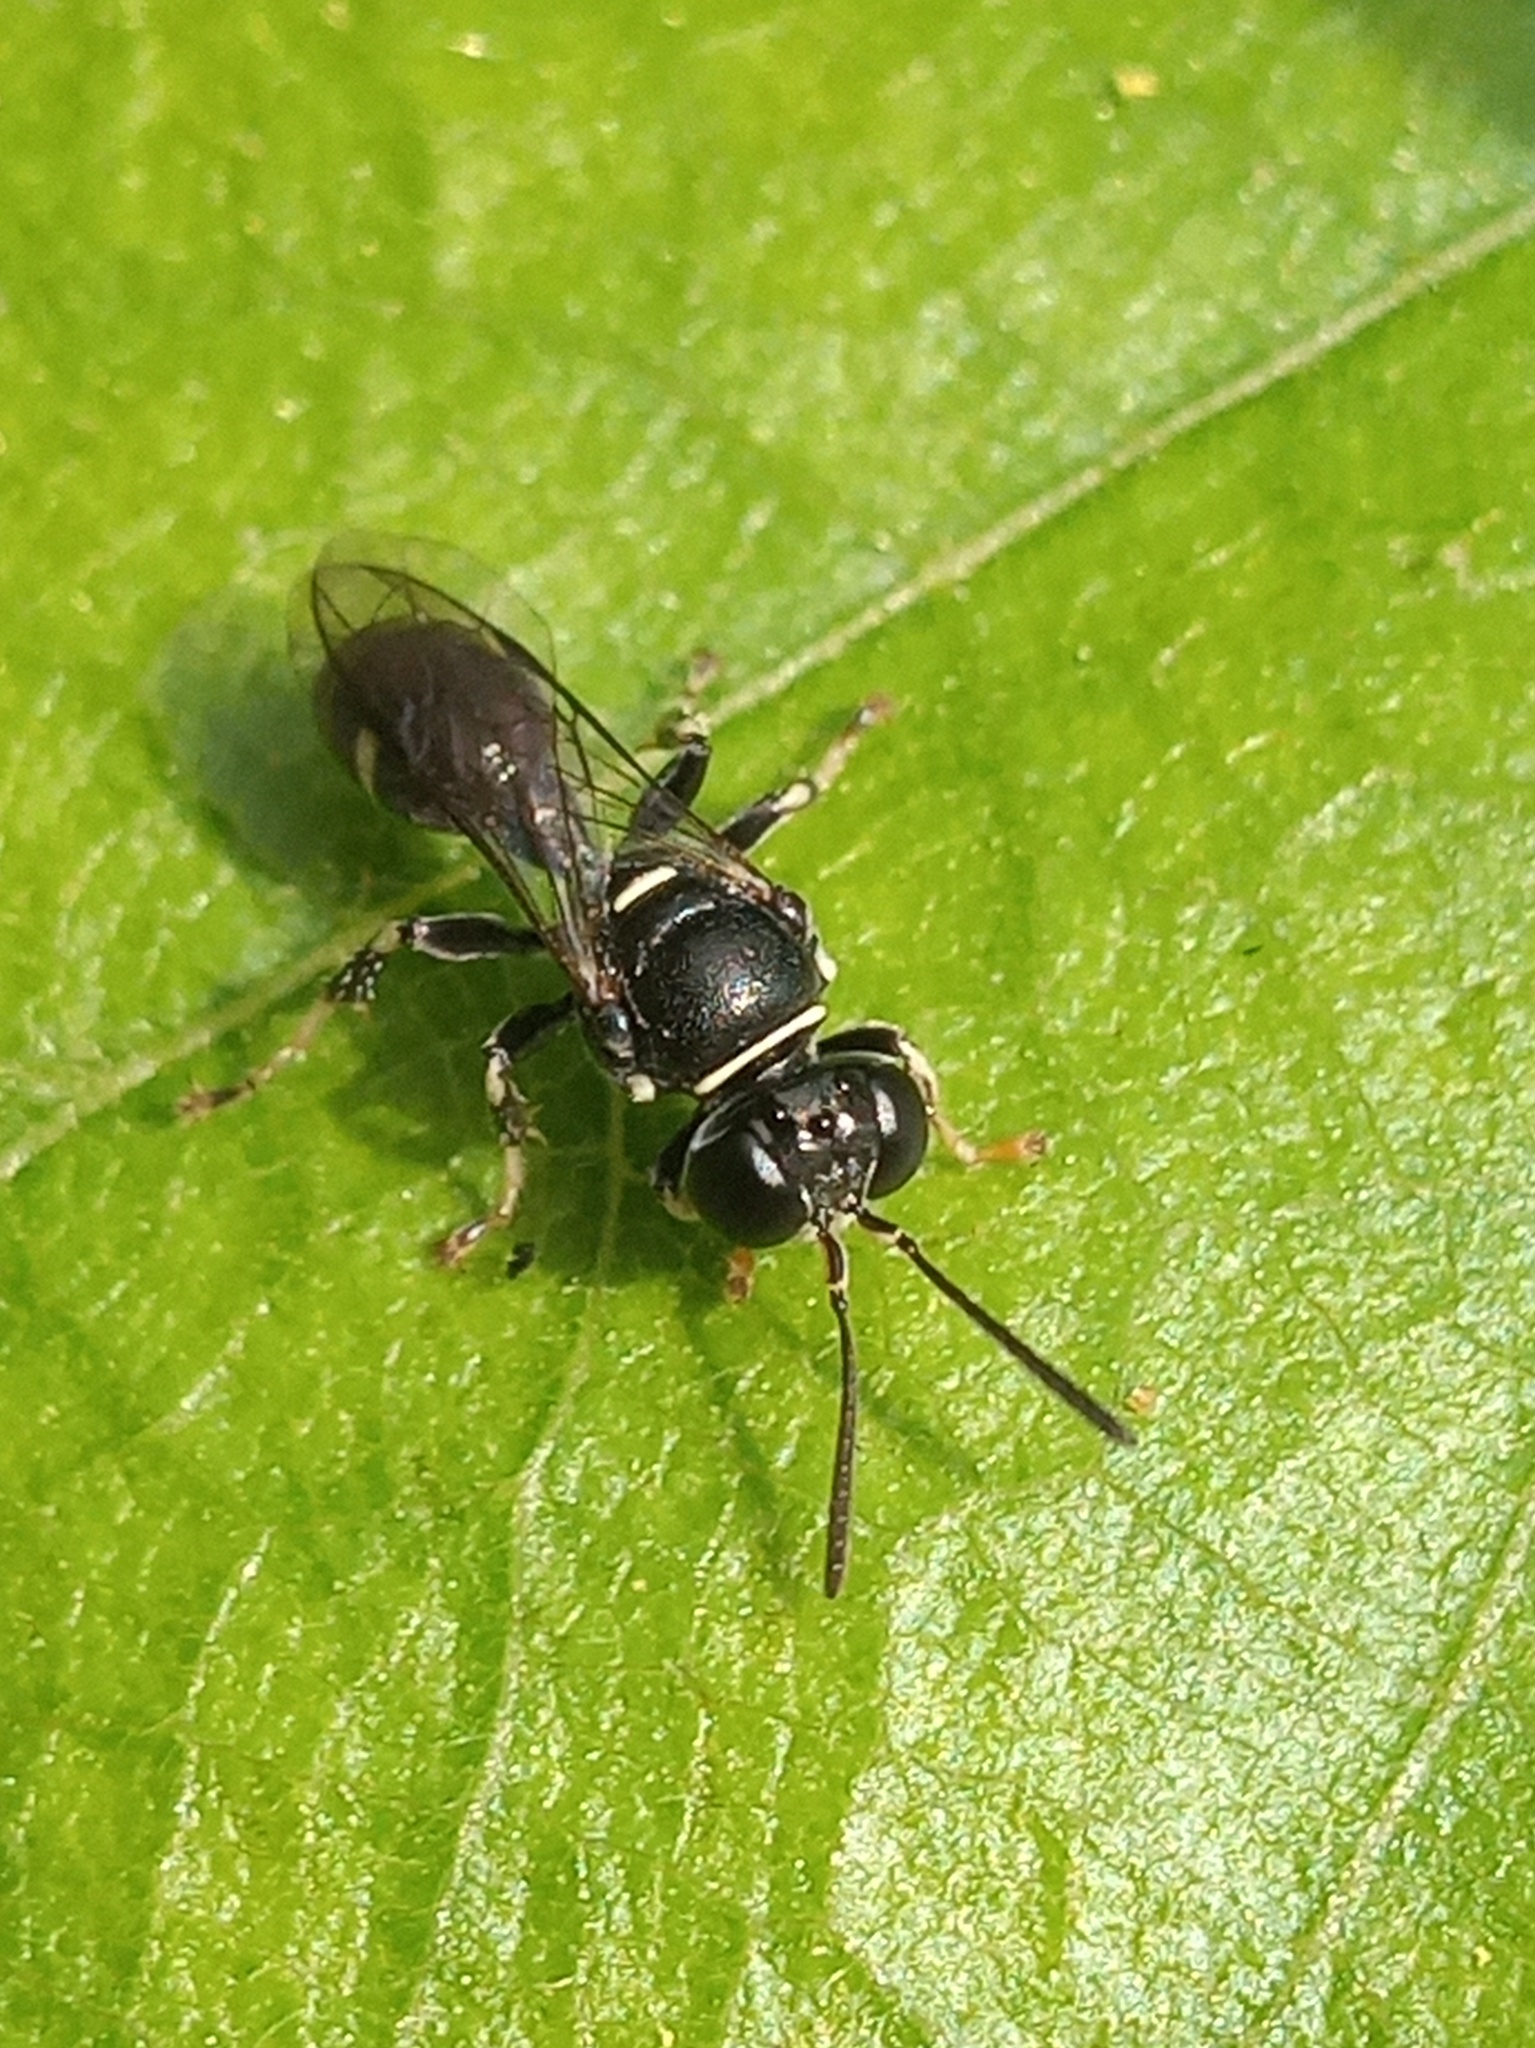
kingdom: Animalia
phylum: Arthropoda
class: Insecta
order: Hymenoptera
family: Crabronidae
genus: Clitemnestra
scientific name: Clitemnestra bipunctata
